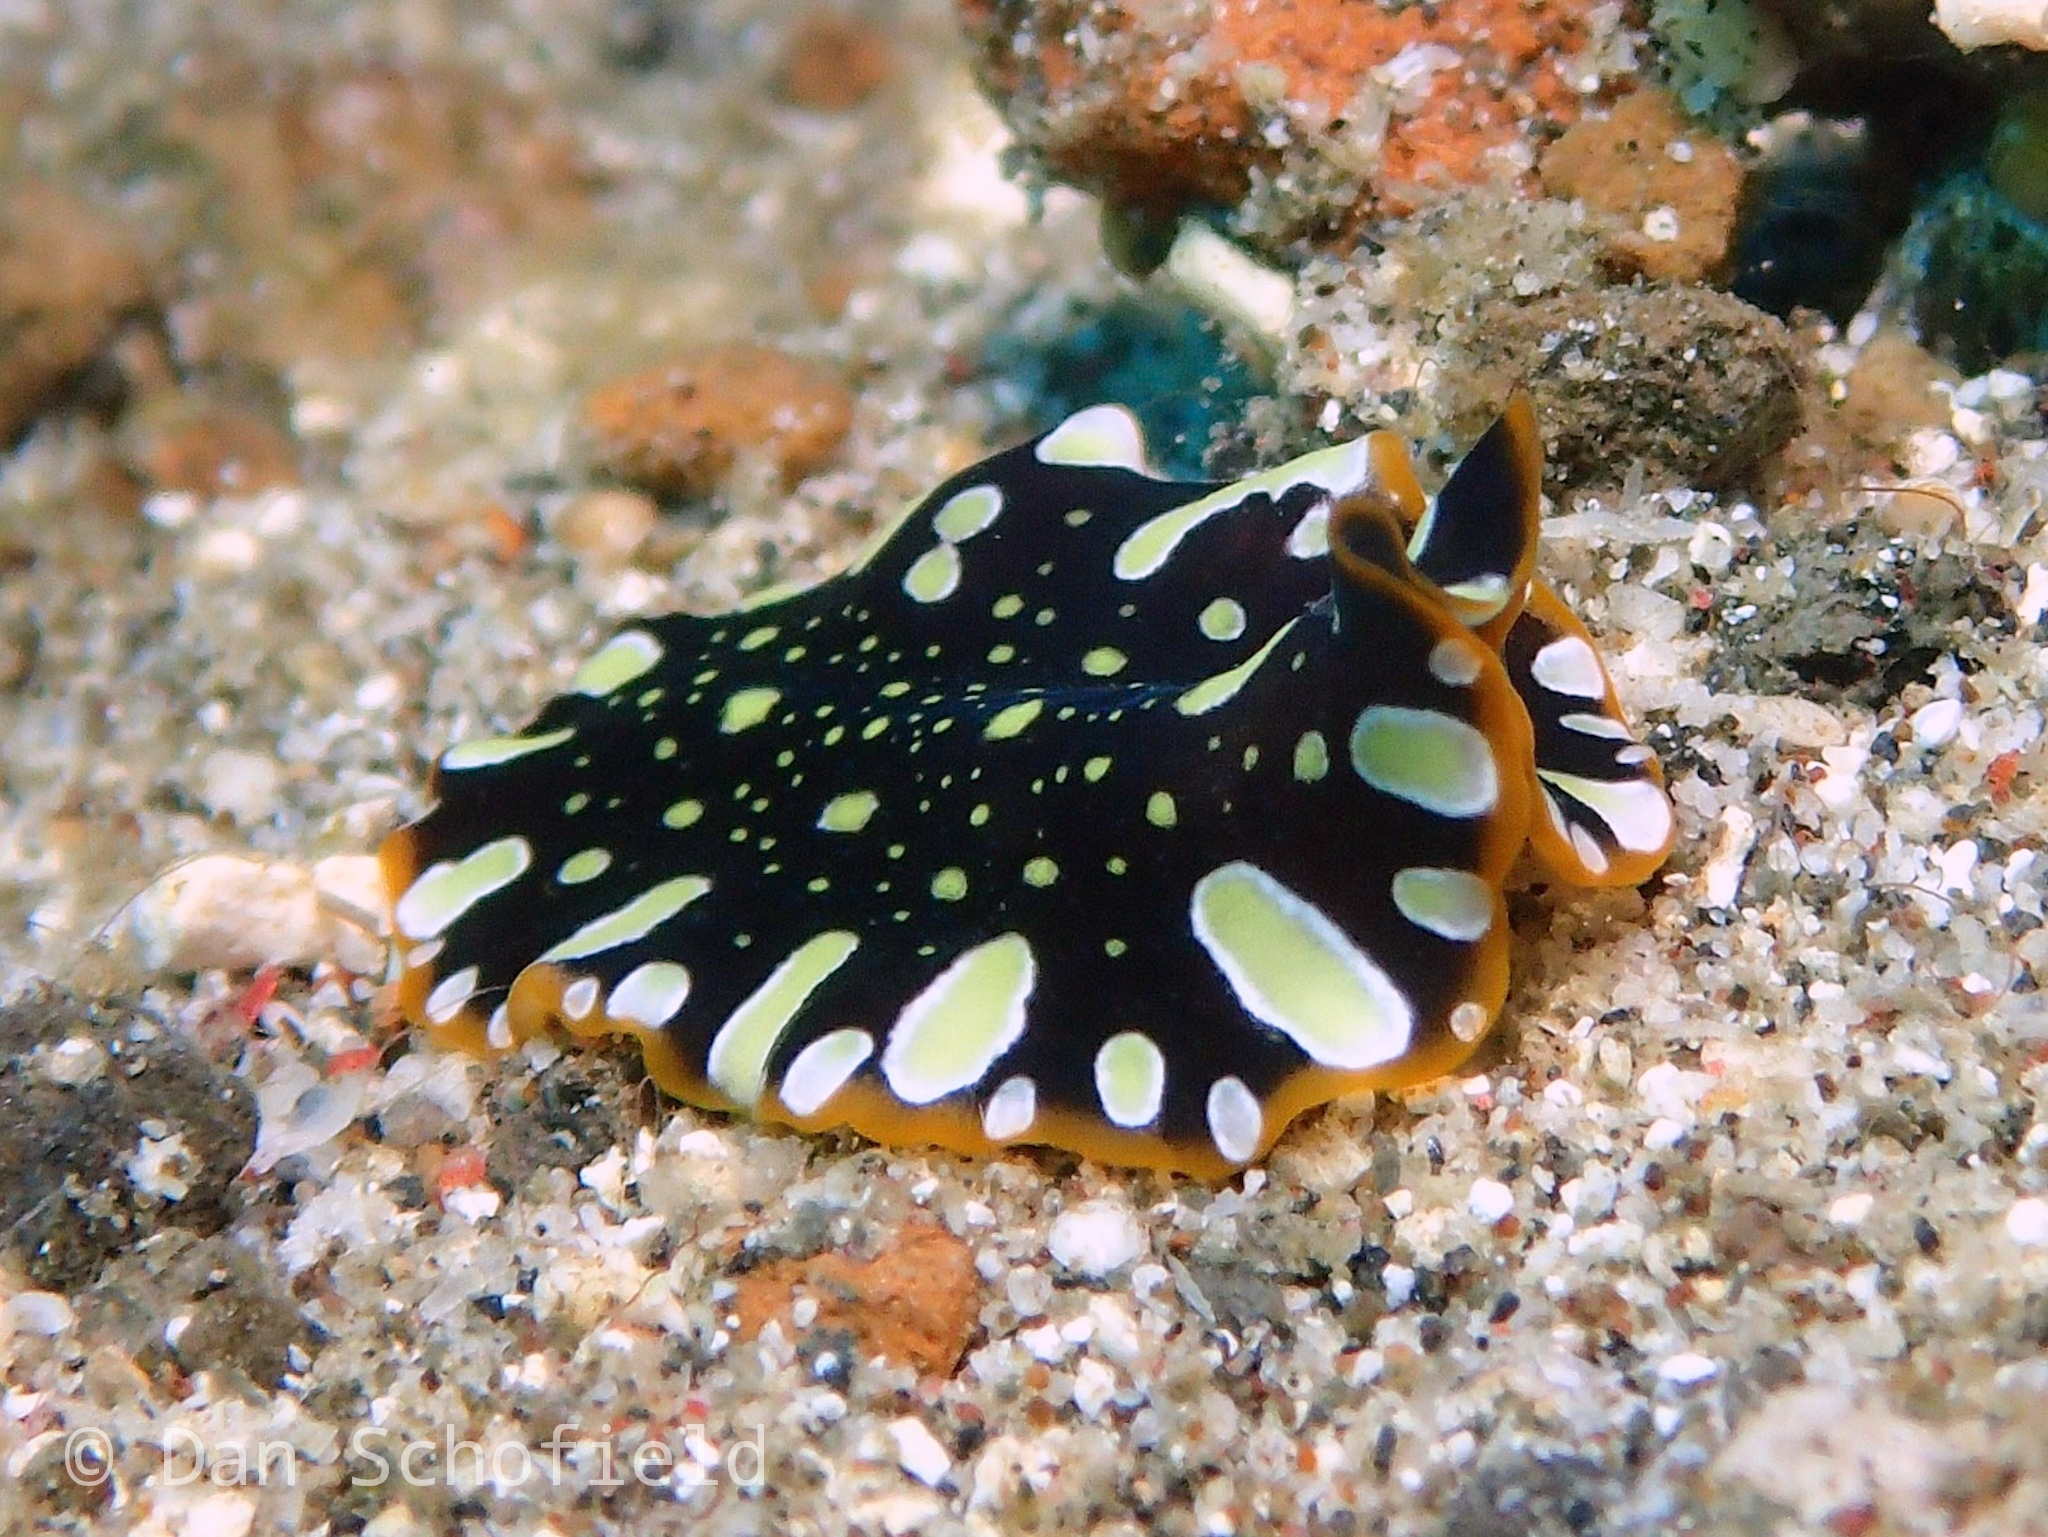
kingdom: Animalia
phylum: Platyhelminthes
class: Turbellaria
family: Pseudocerotidae
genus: Pseudoceros
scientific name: Pseudoceros scintillatus
